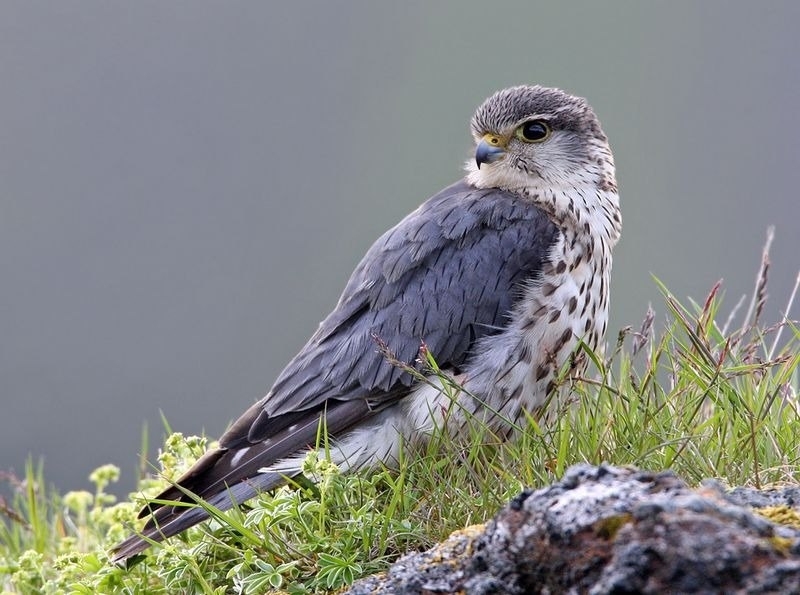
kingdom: Animalia
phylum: Chordata
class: Aves
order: Falconiformes
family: Falconidae
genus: Falco
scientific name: Falco columbarius
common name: Merlin
